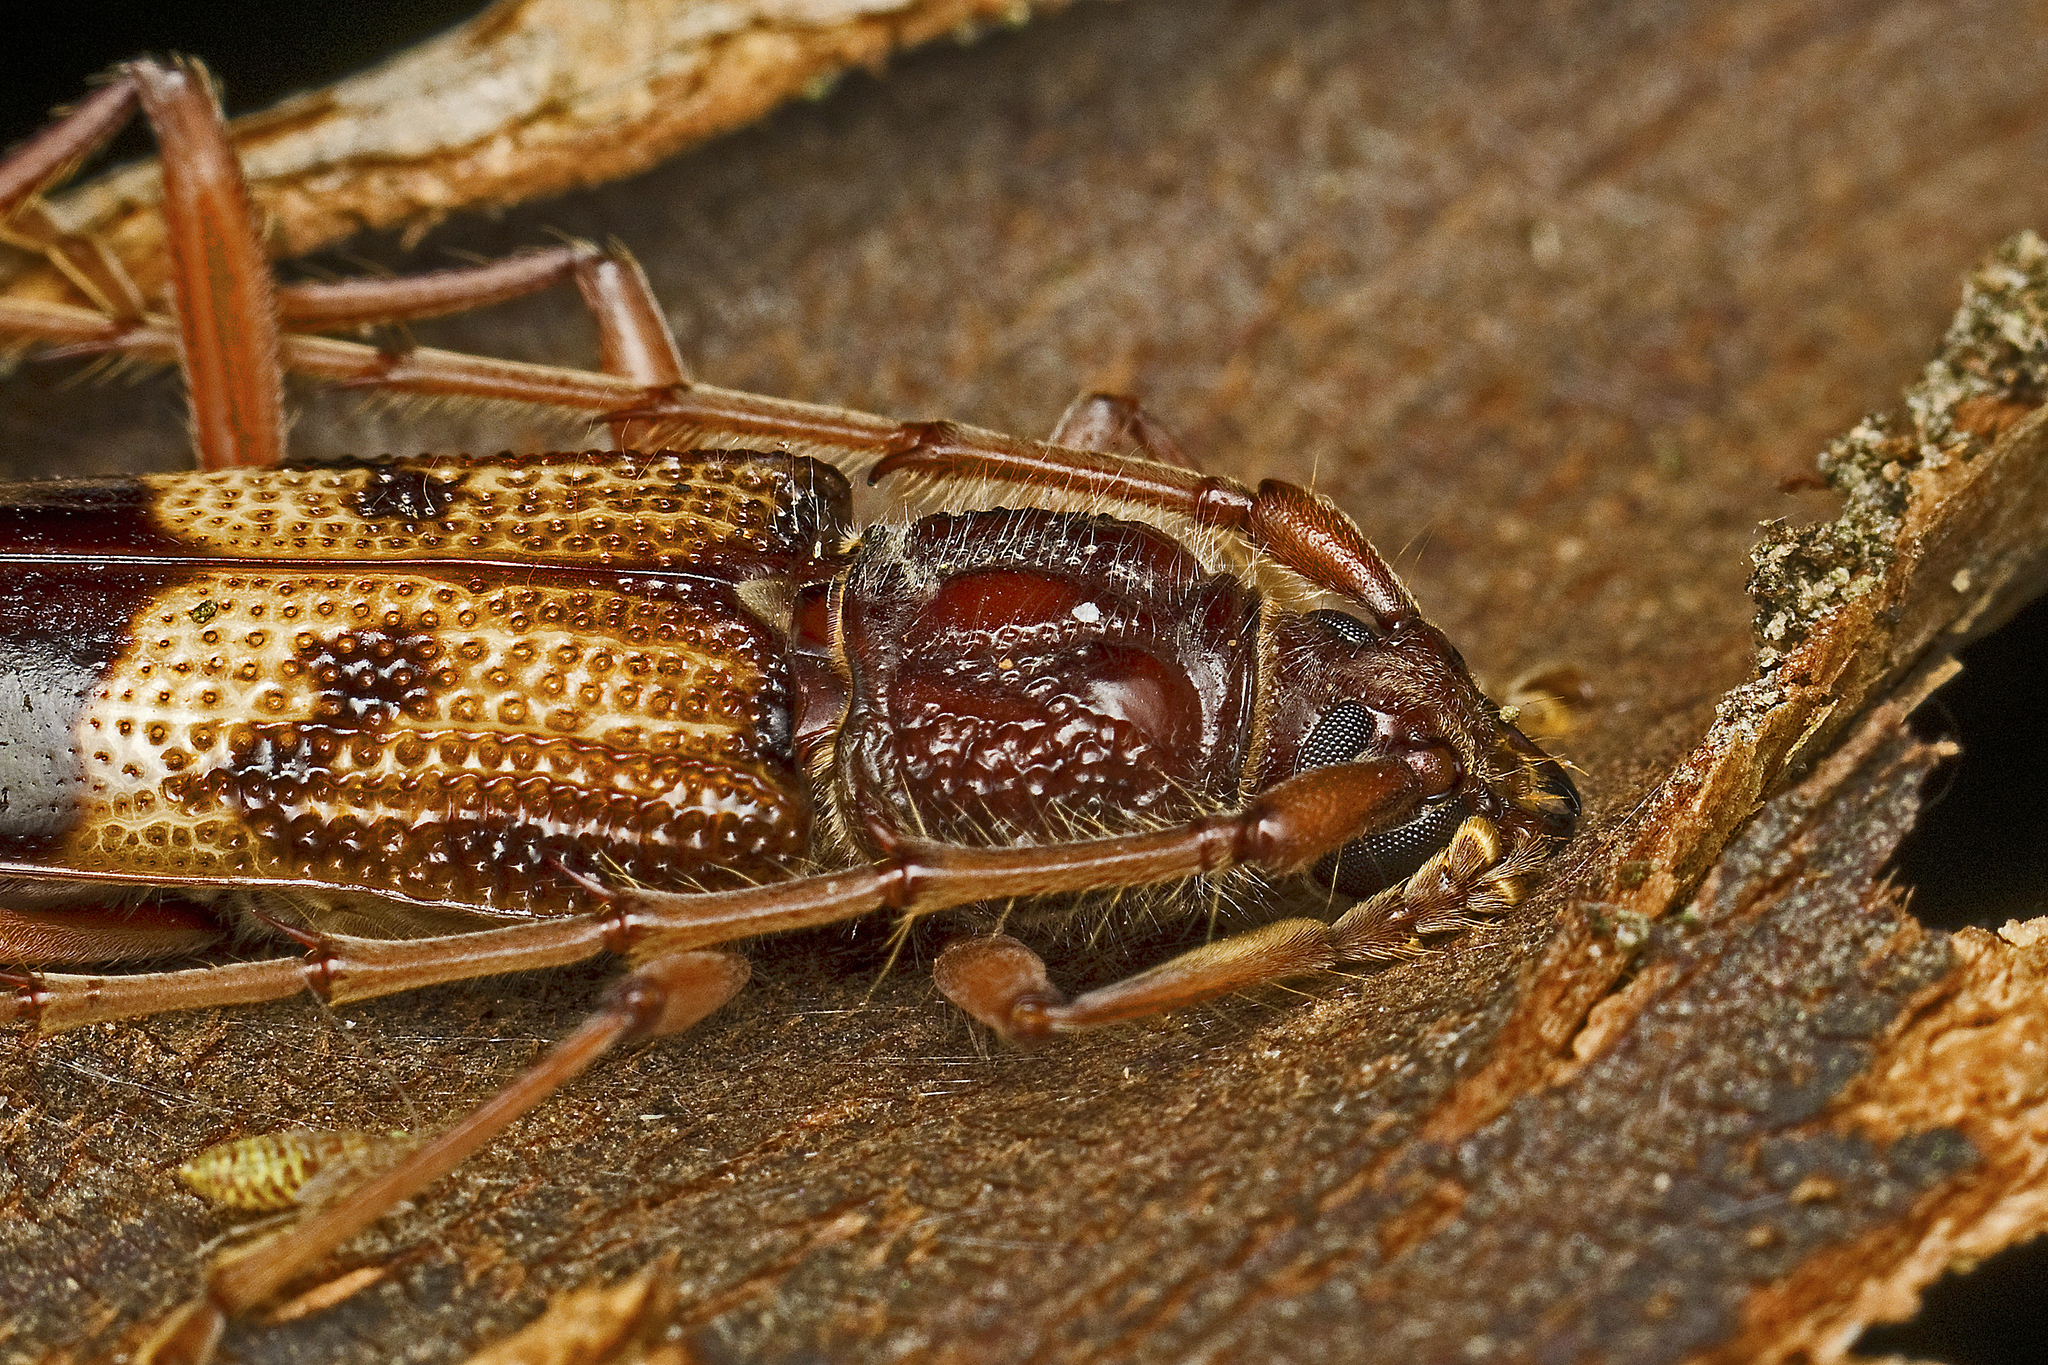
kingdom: Animalia
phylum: Arthropoda
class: Insecta
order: Coleoptera
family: Cerambycidae
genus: Phoracantha
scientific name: Phoracantha recurva
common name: Eucalyptus longhorned borer
